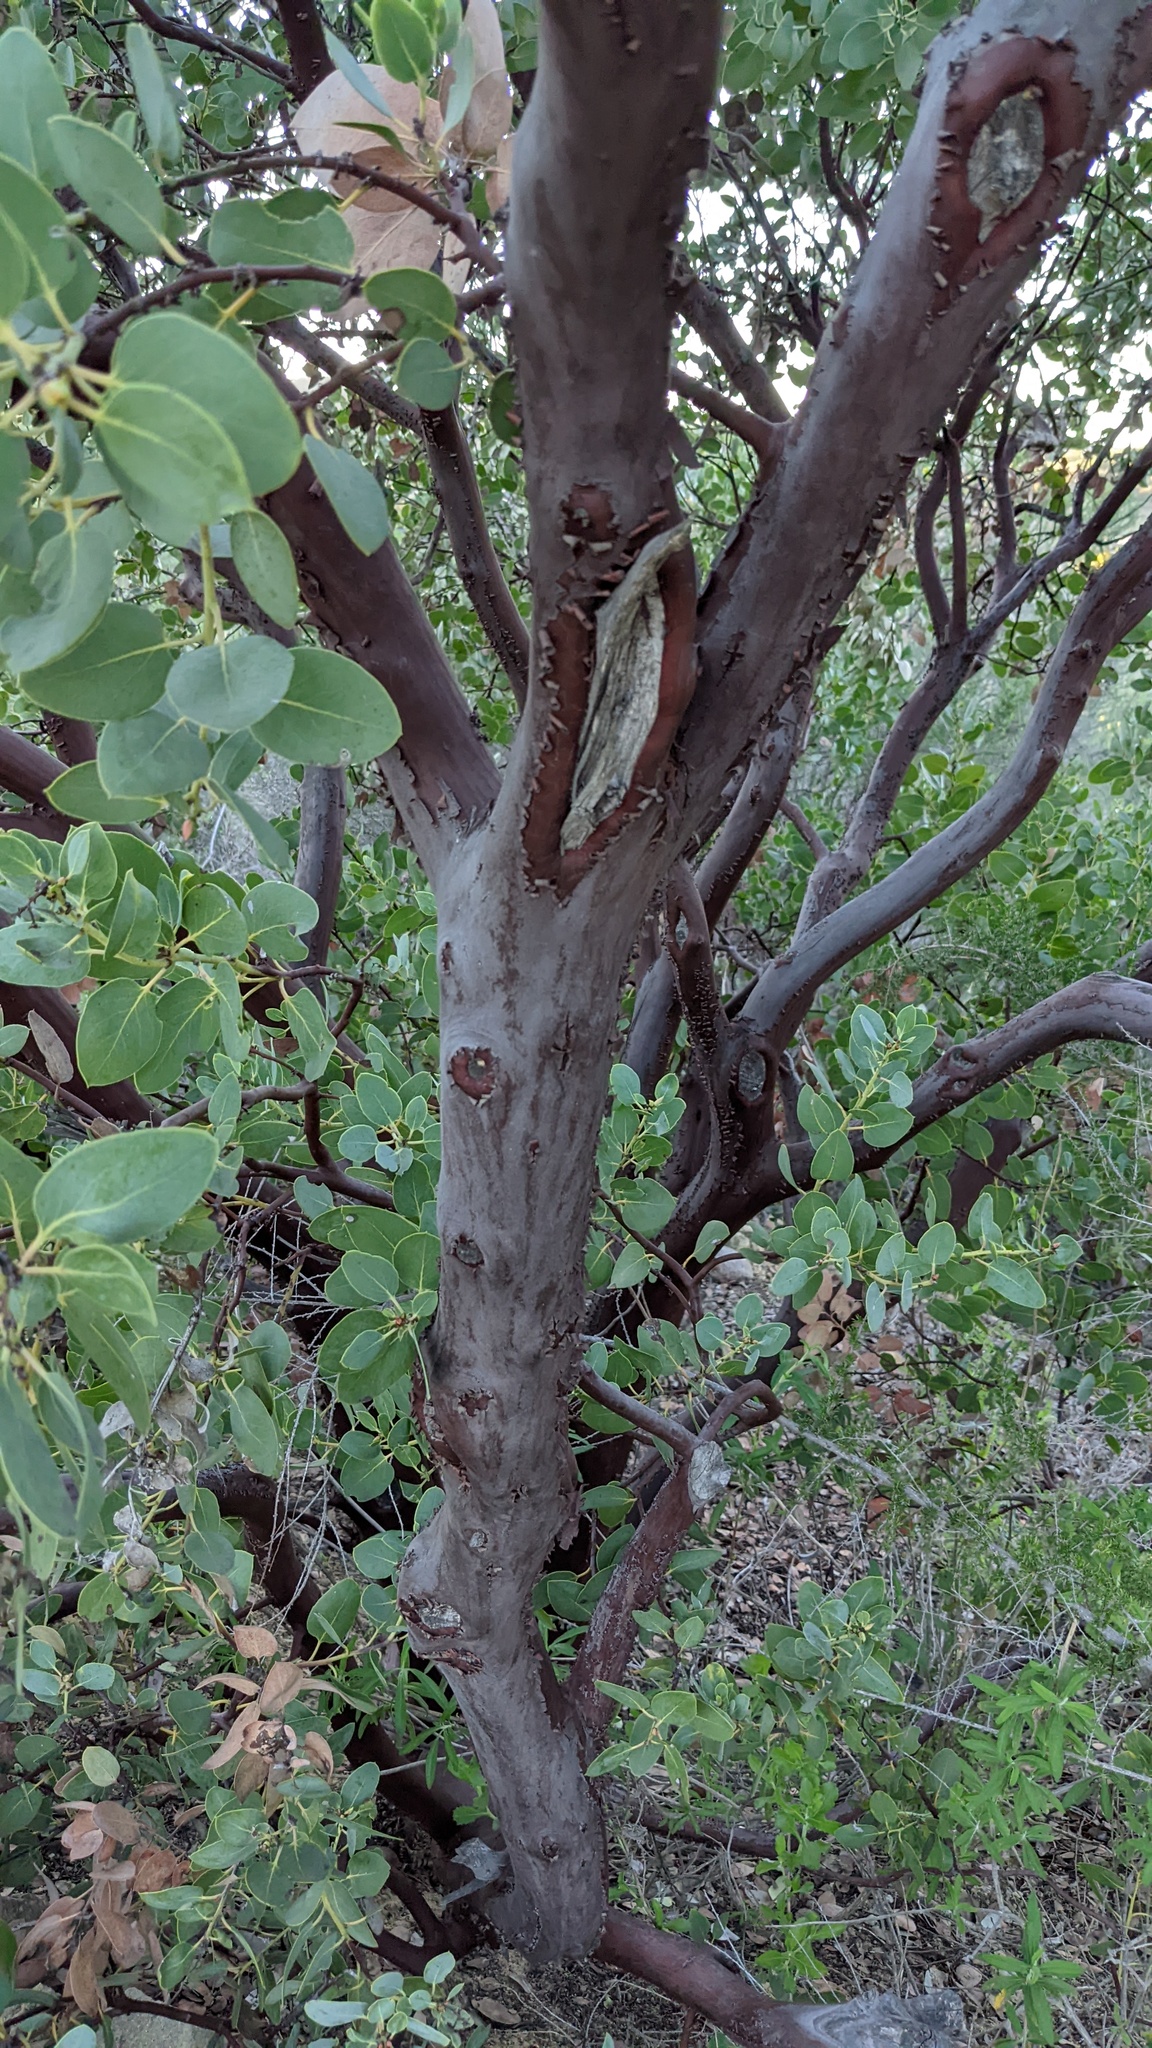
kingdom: Plantae
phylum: Tracheophyta
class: Magnoliopsida
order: Ericales
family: Ericaceae
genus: Arctostaphylos
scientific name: Arctostaphylos glauca
